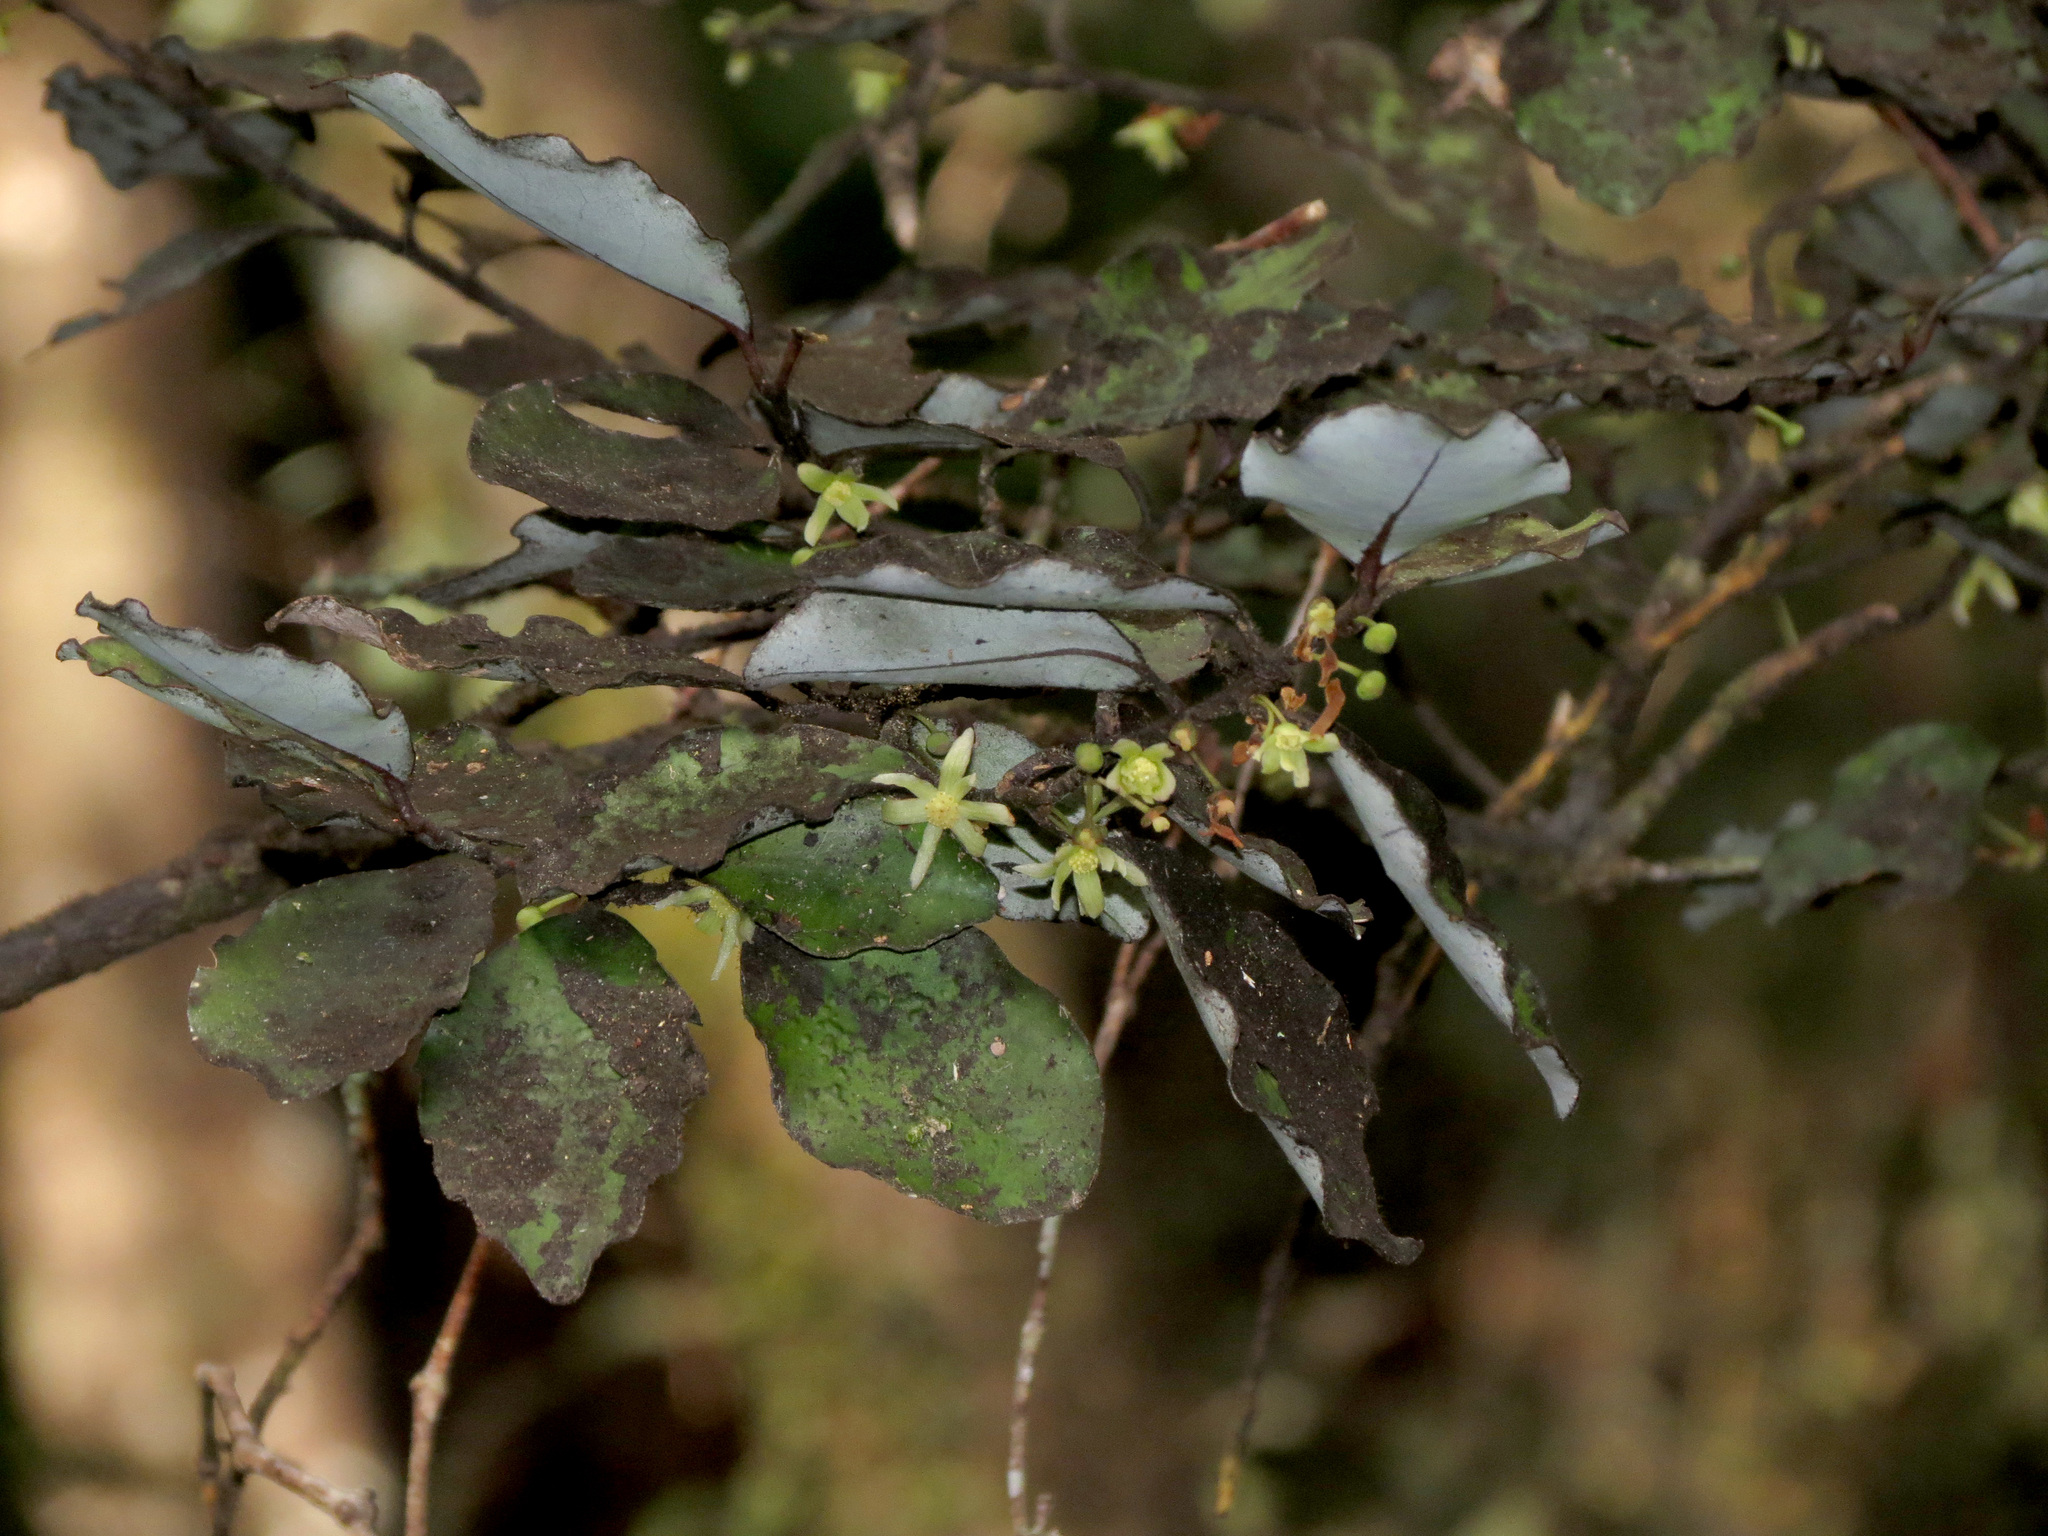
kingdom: Plantae
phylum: Tracheophyta
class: Magnoliopsida
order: Canellales
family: Winteraceae
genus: Pseudowintera
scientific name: Pseudowintera colorata
